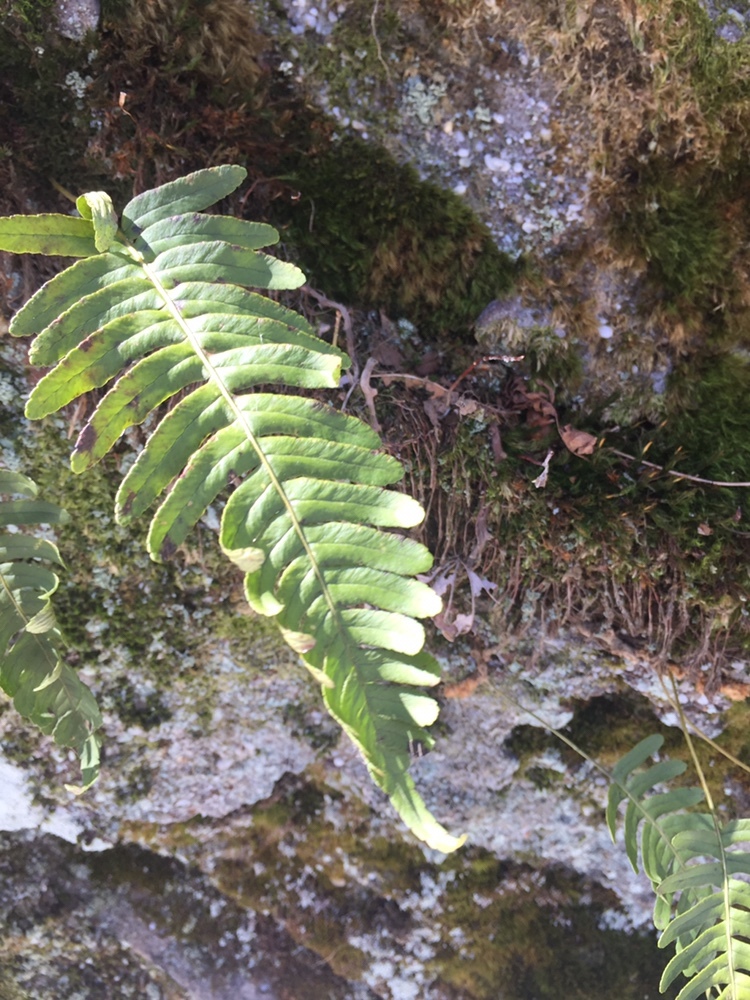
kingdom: Plantae
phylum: Tracheophyta
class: Polypodiopsida
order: Polypodiales
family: Polypodiaceae
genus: Polypodium
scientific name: Polypodium virginianum
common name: American wall fern
